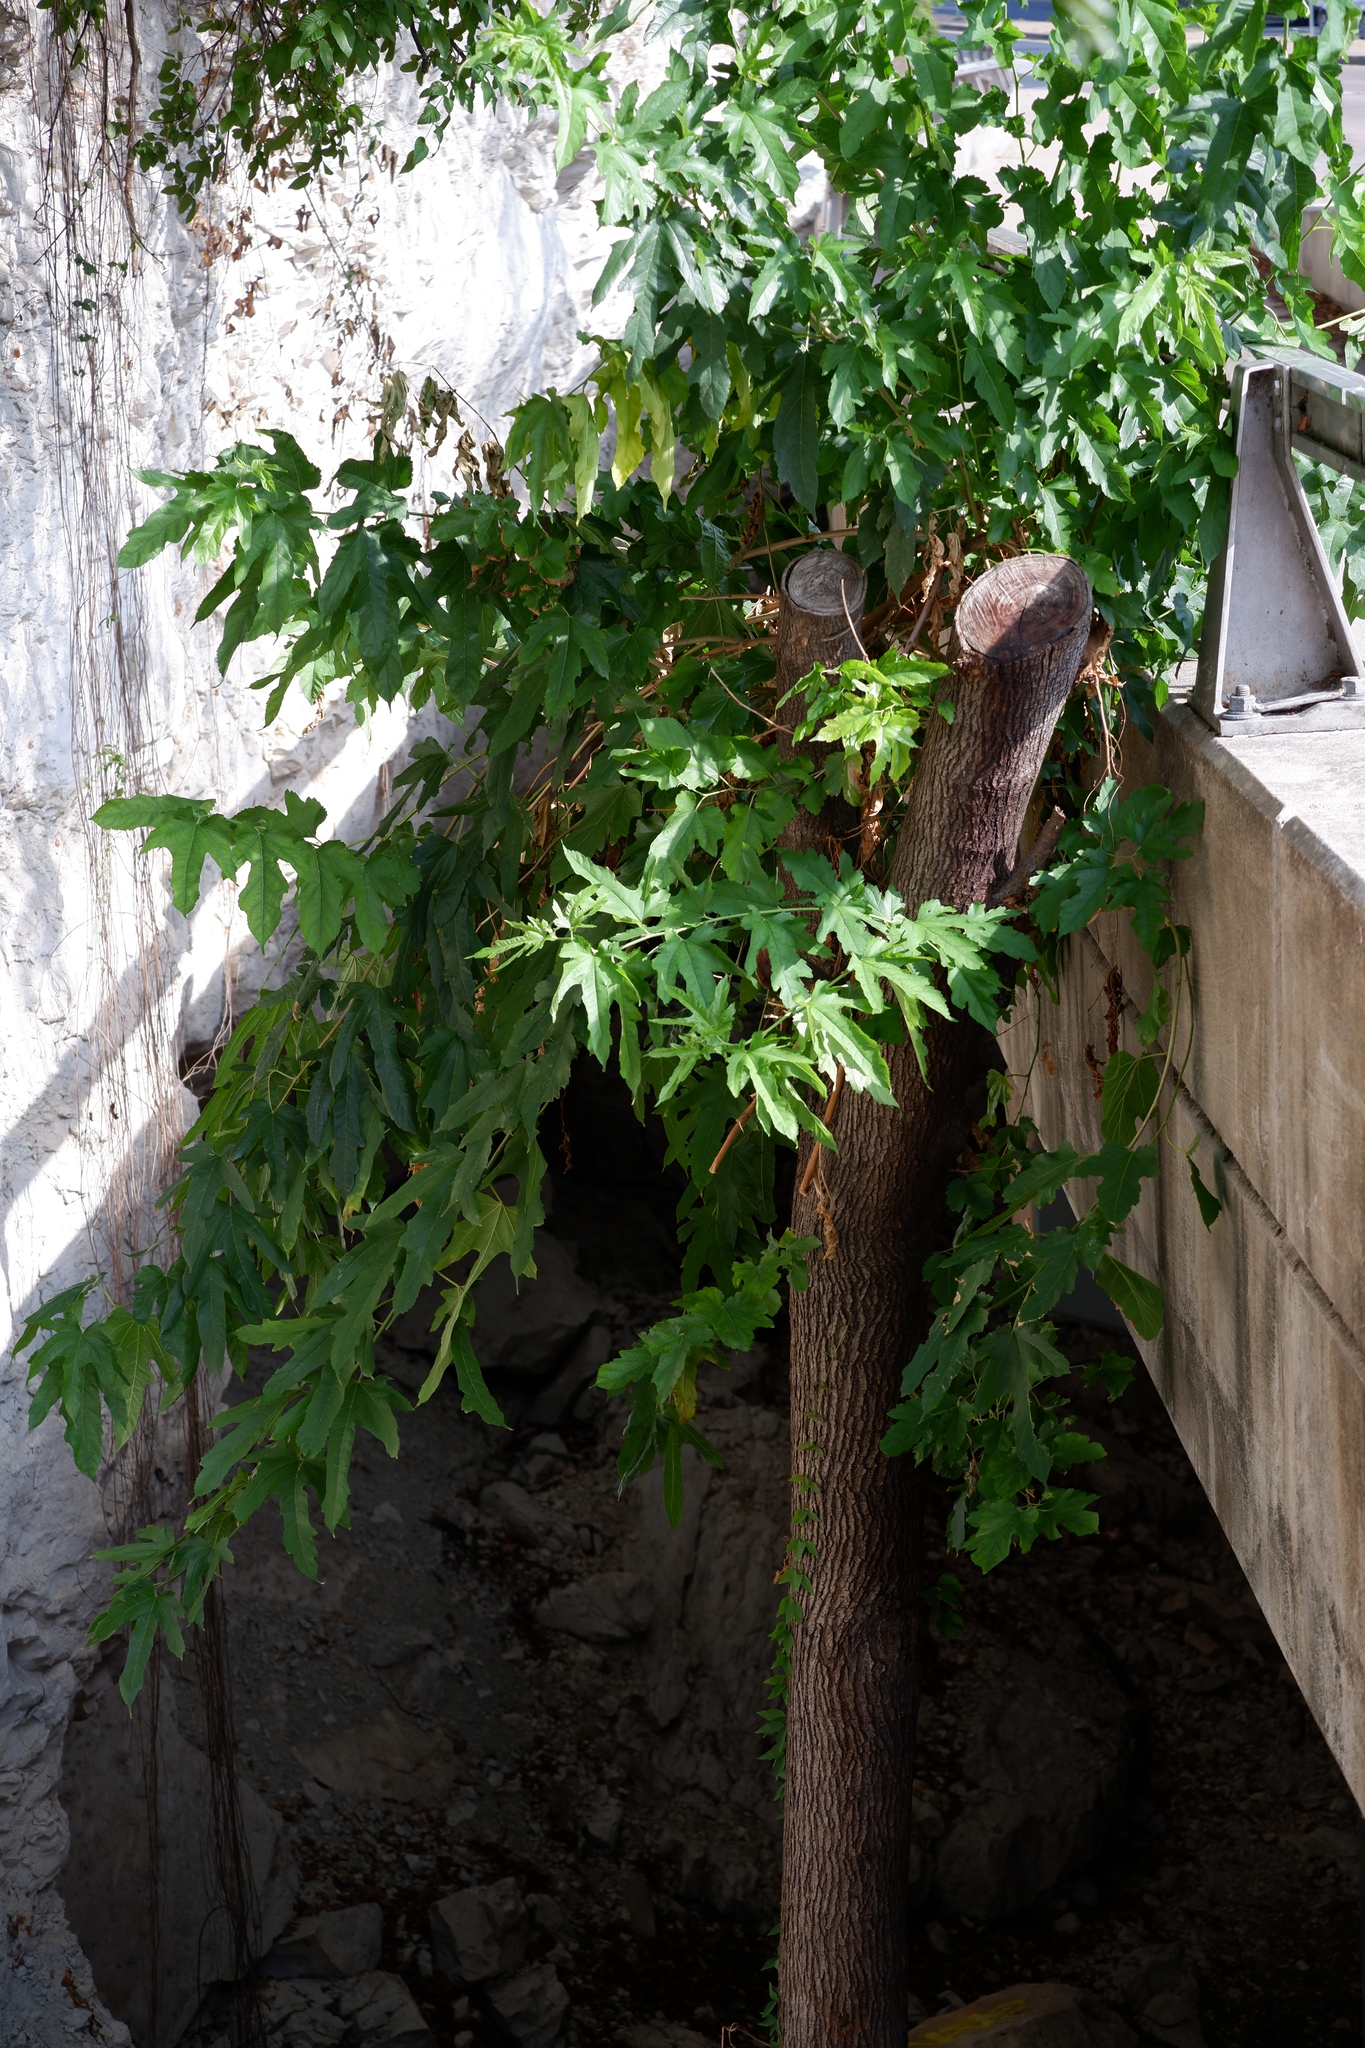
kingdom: Plantae
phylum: Tracheophyta
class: Magnoliopsida
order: Rosales
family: Moraceae
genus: Morus
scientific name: Morus indica
